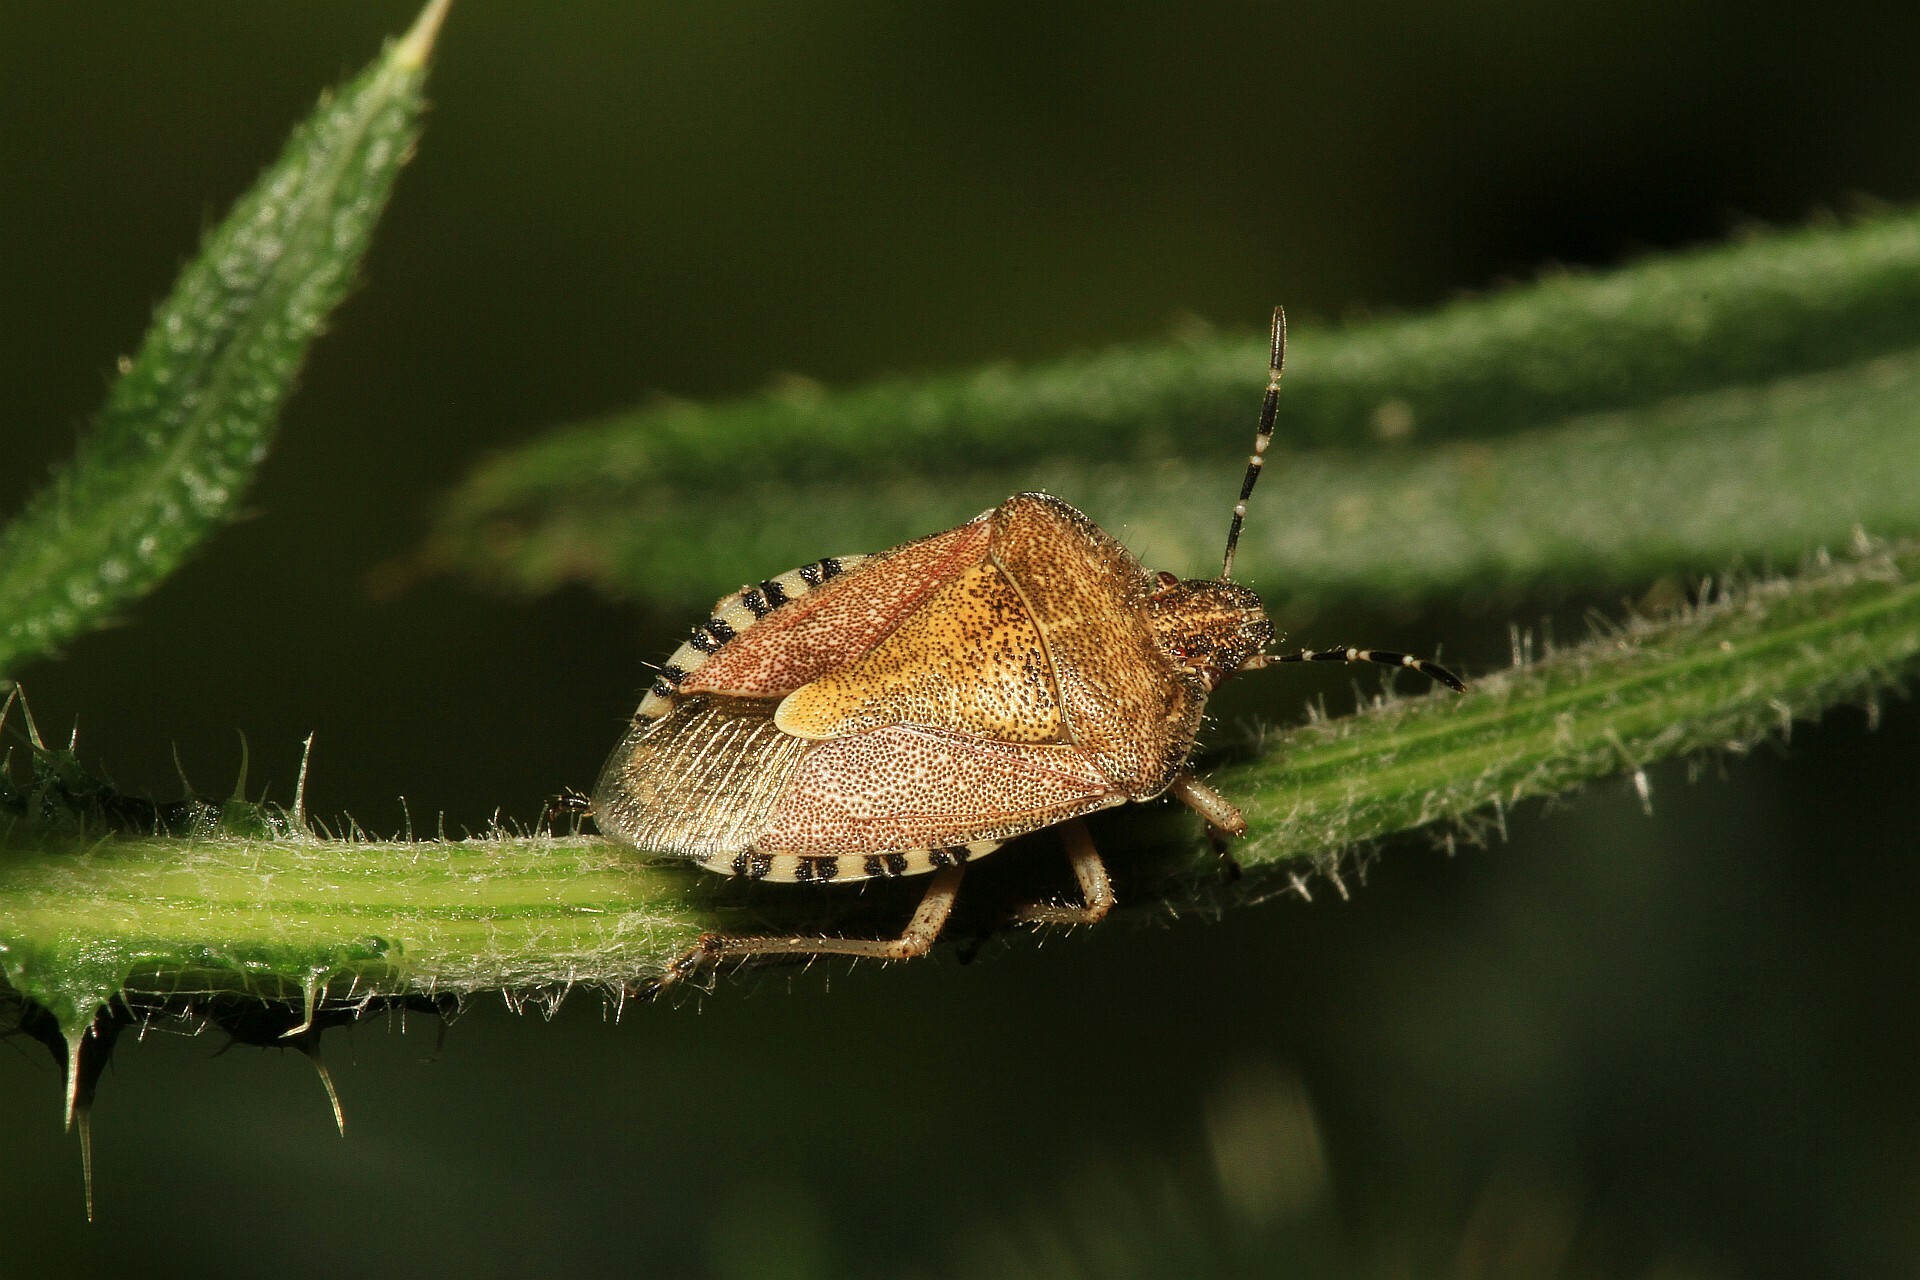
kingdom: Animalia
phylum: Arthropoda
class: Insecta
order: Hemiptera
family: Pentatomidae
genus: Dolycoris
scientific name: Dolycoris baccarum
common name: Sloe bug
